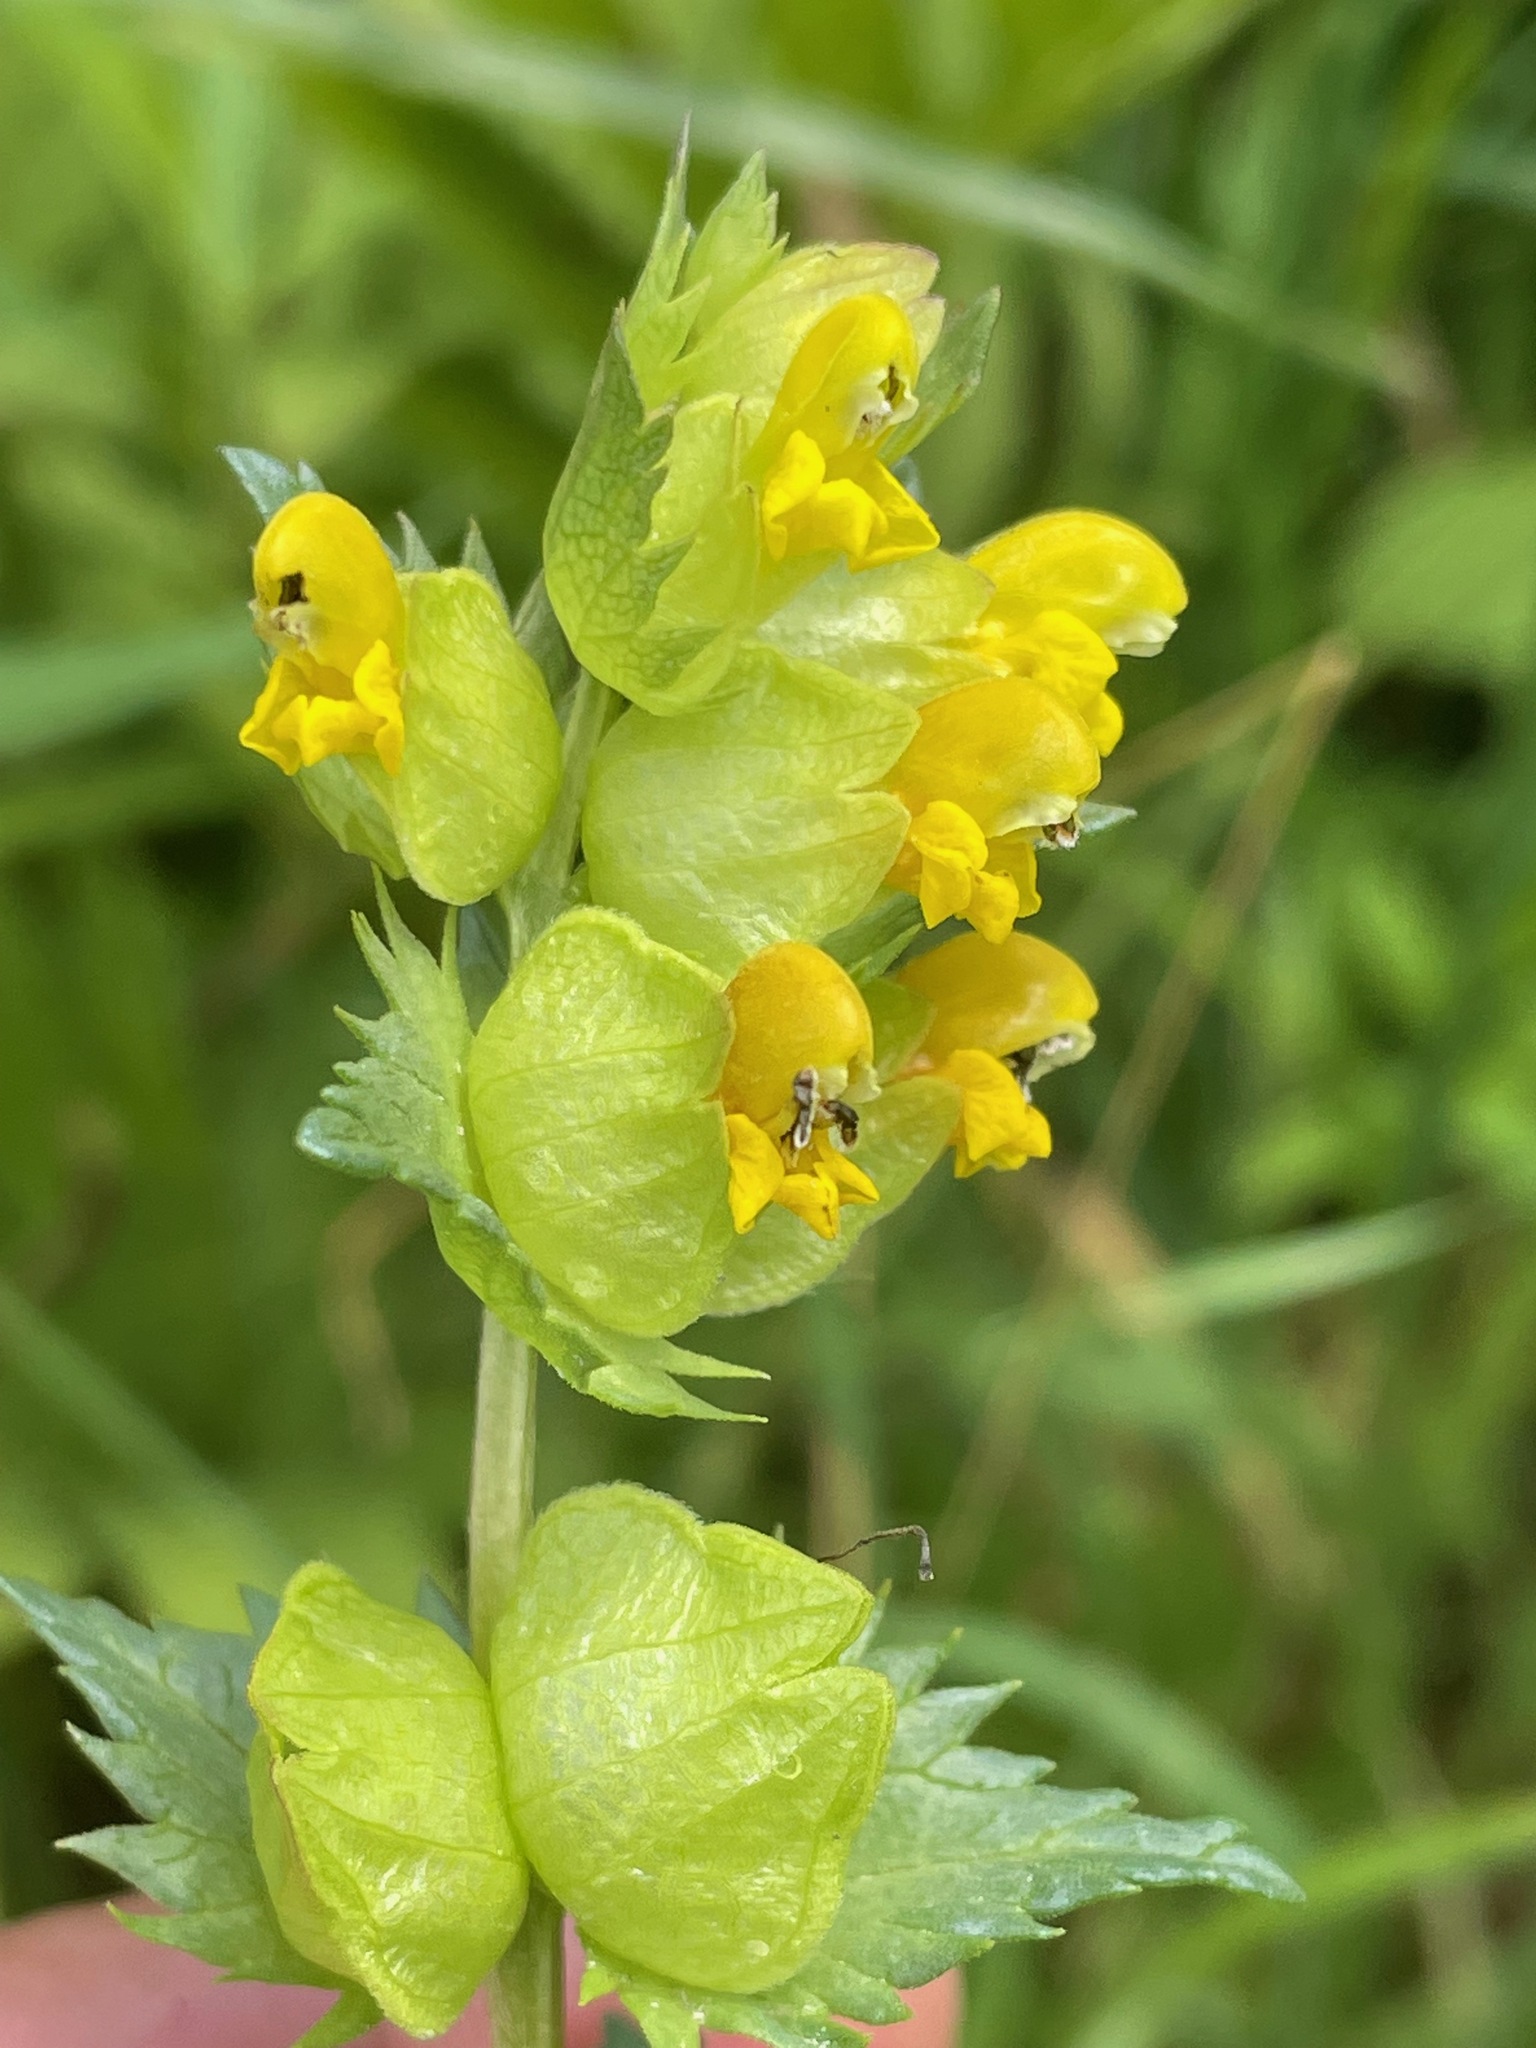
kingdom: Plantae
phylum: Tracheophyta
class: Magnoliopsida
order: Lamiales
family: Orobanchaceae
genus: Rhinanthus
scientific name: Rhinanthus minor
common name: Yellow-rattle
